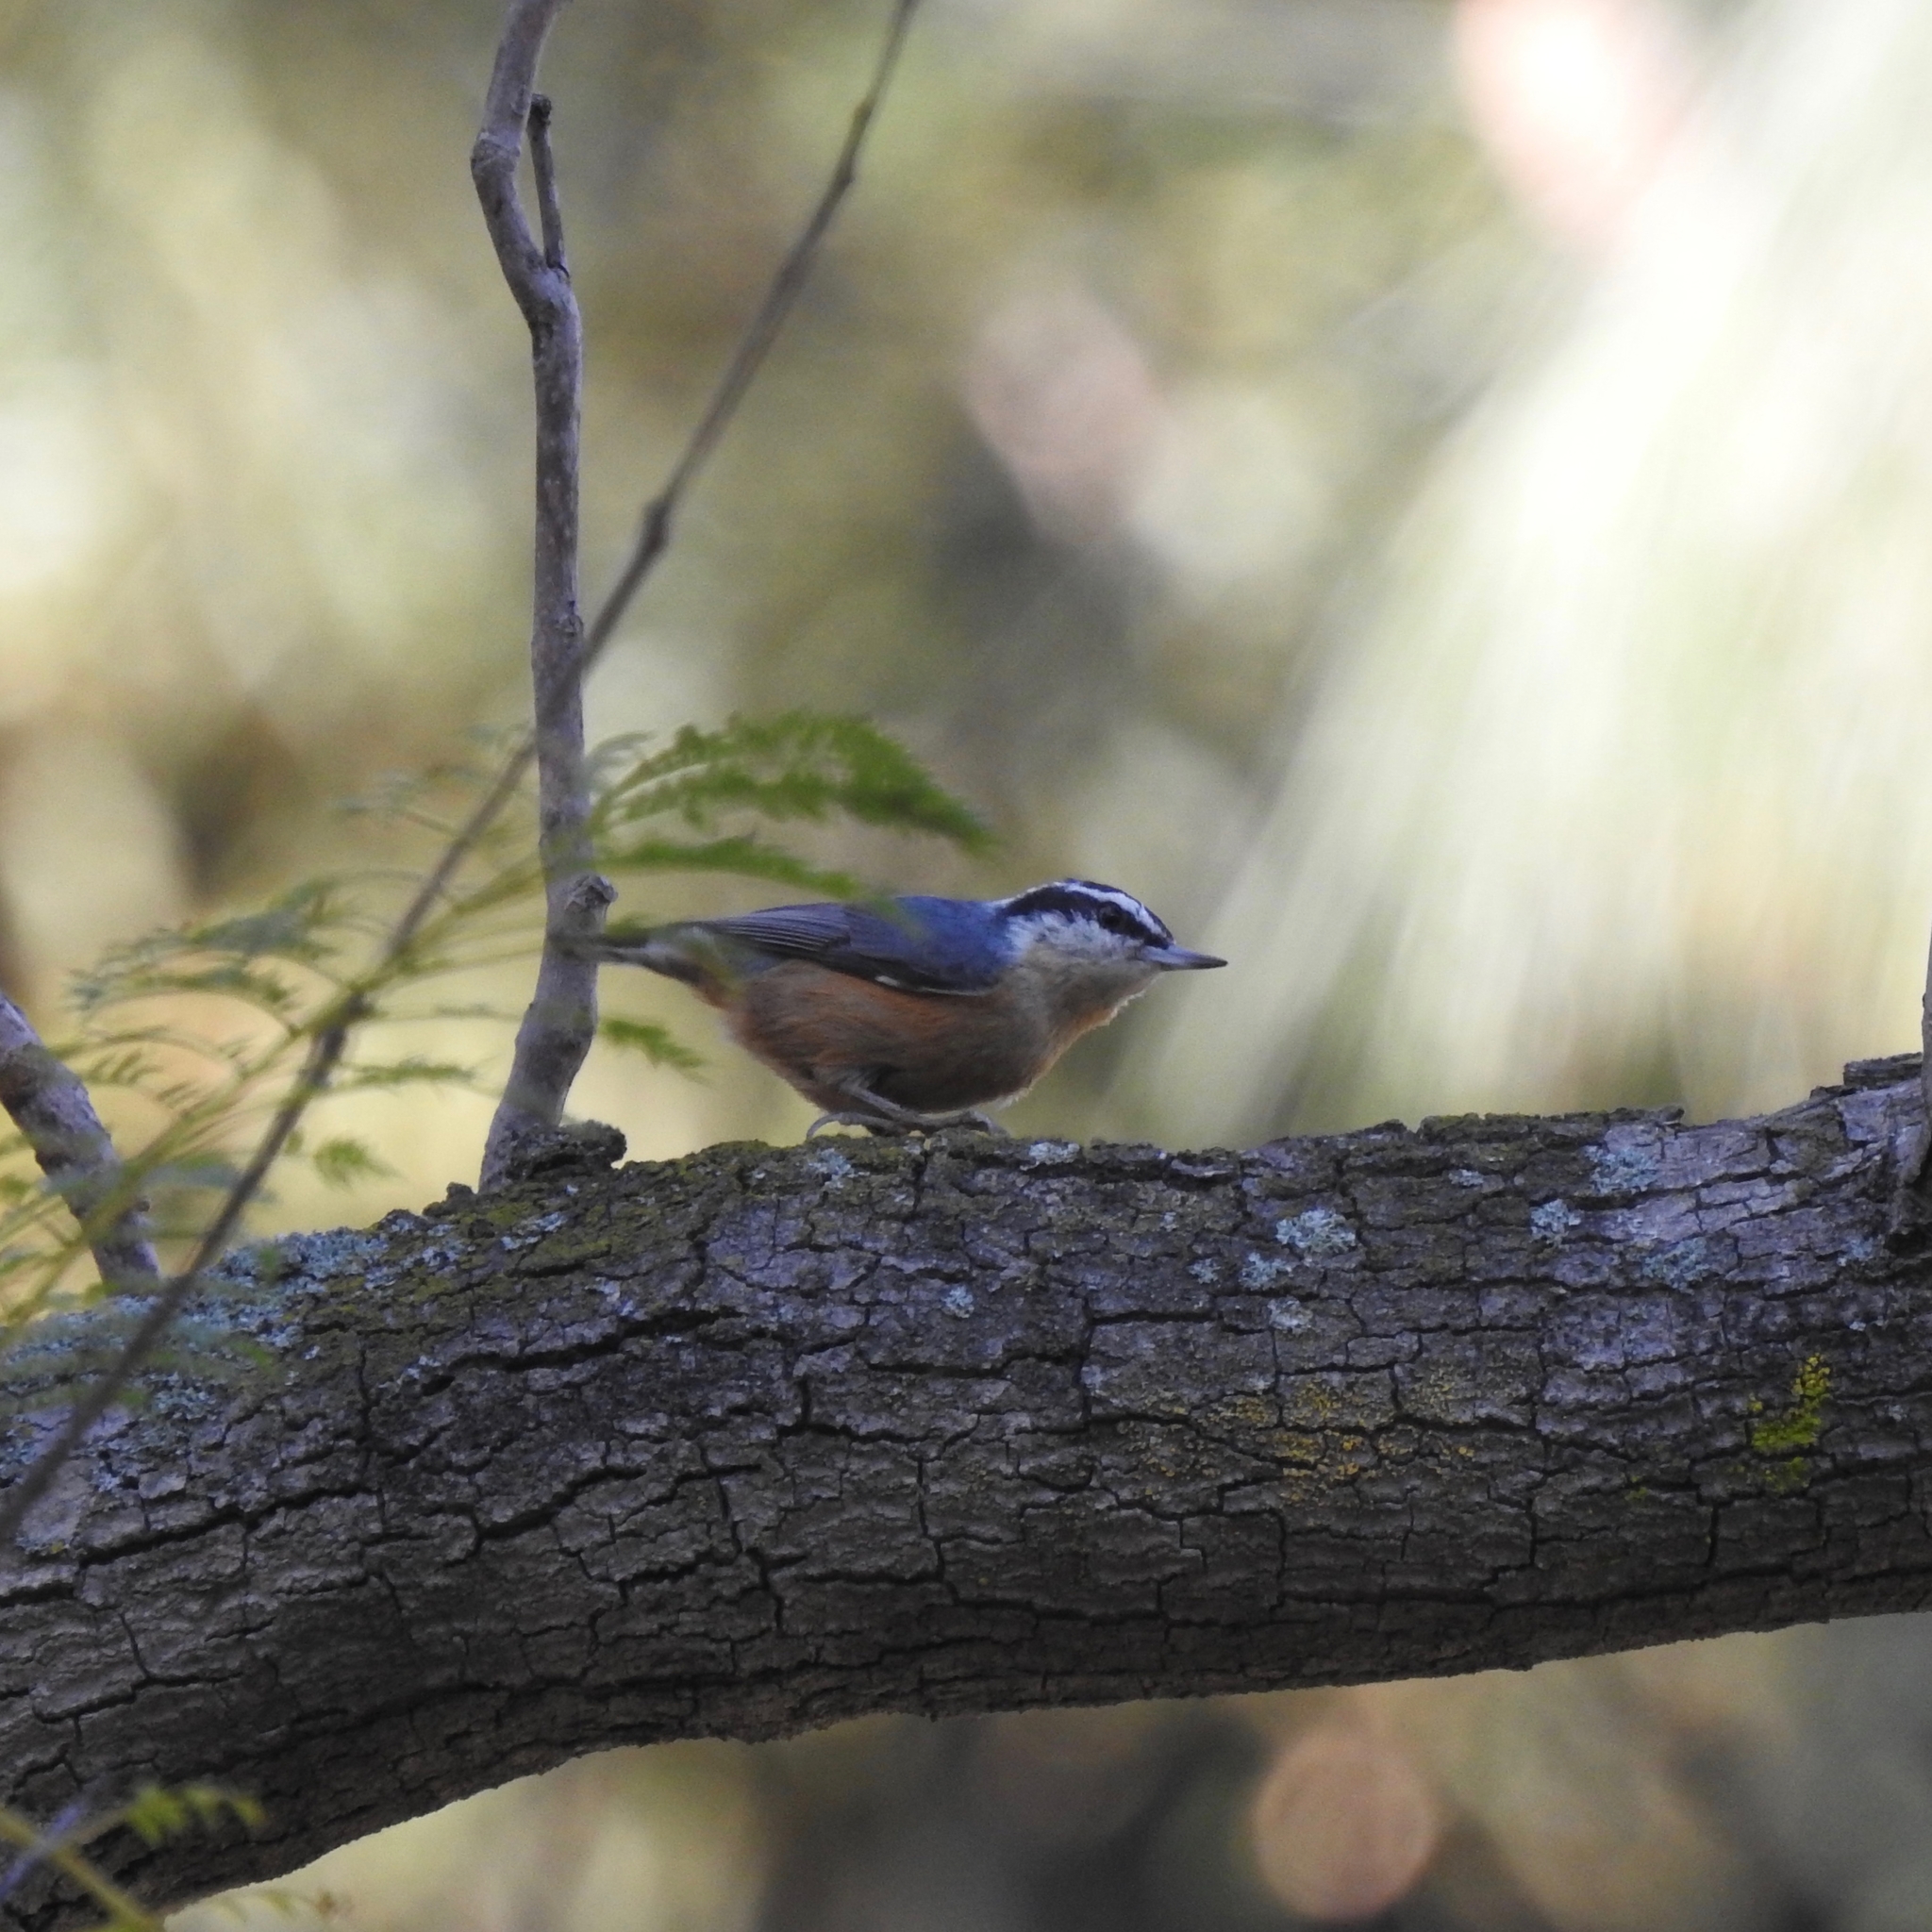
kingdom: Animalia
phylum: Chordata
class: Aves
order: Passeriformes
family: Sittidae
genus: Sitta
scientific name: Sitta canadensis
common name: Red-breasted nuthatch
